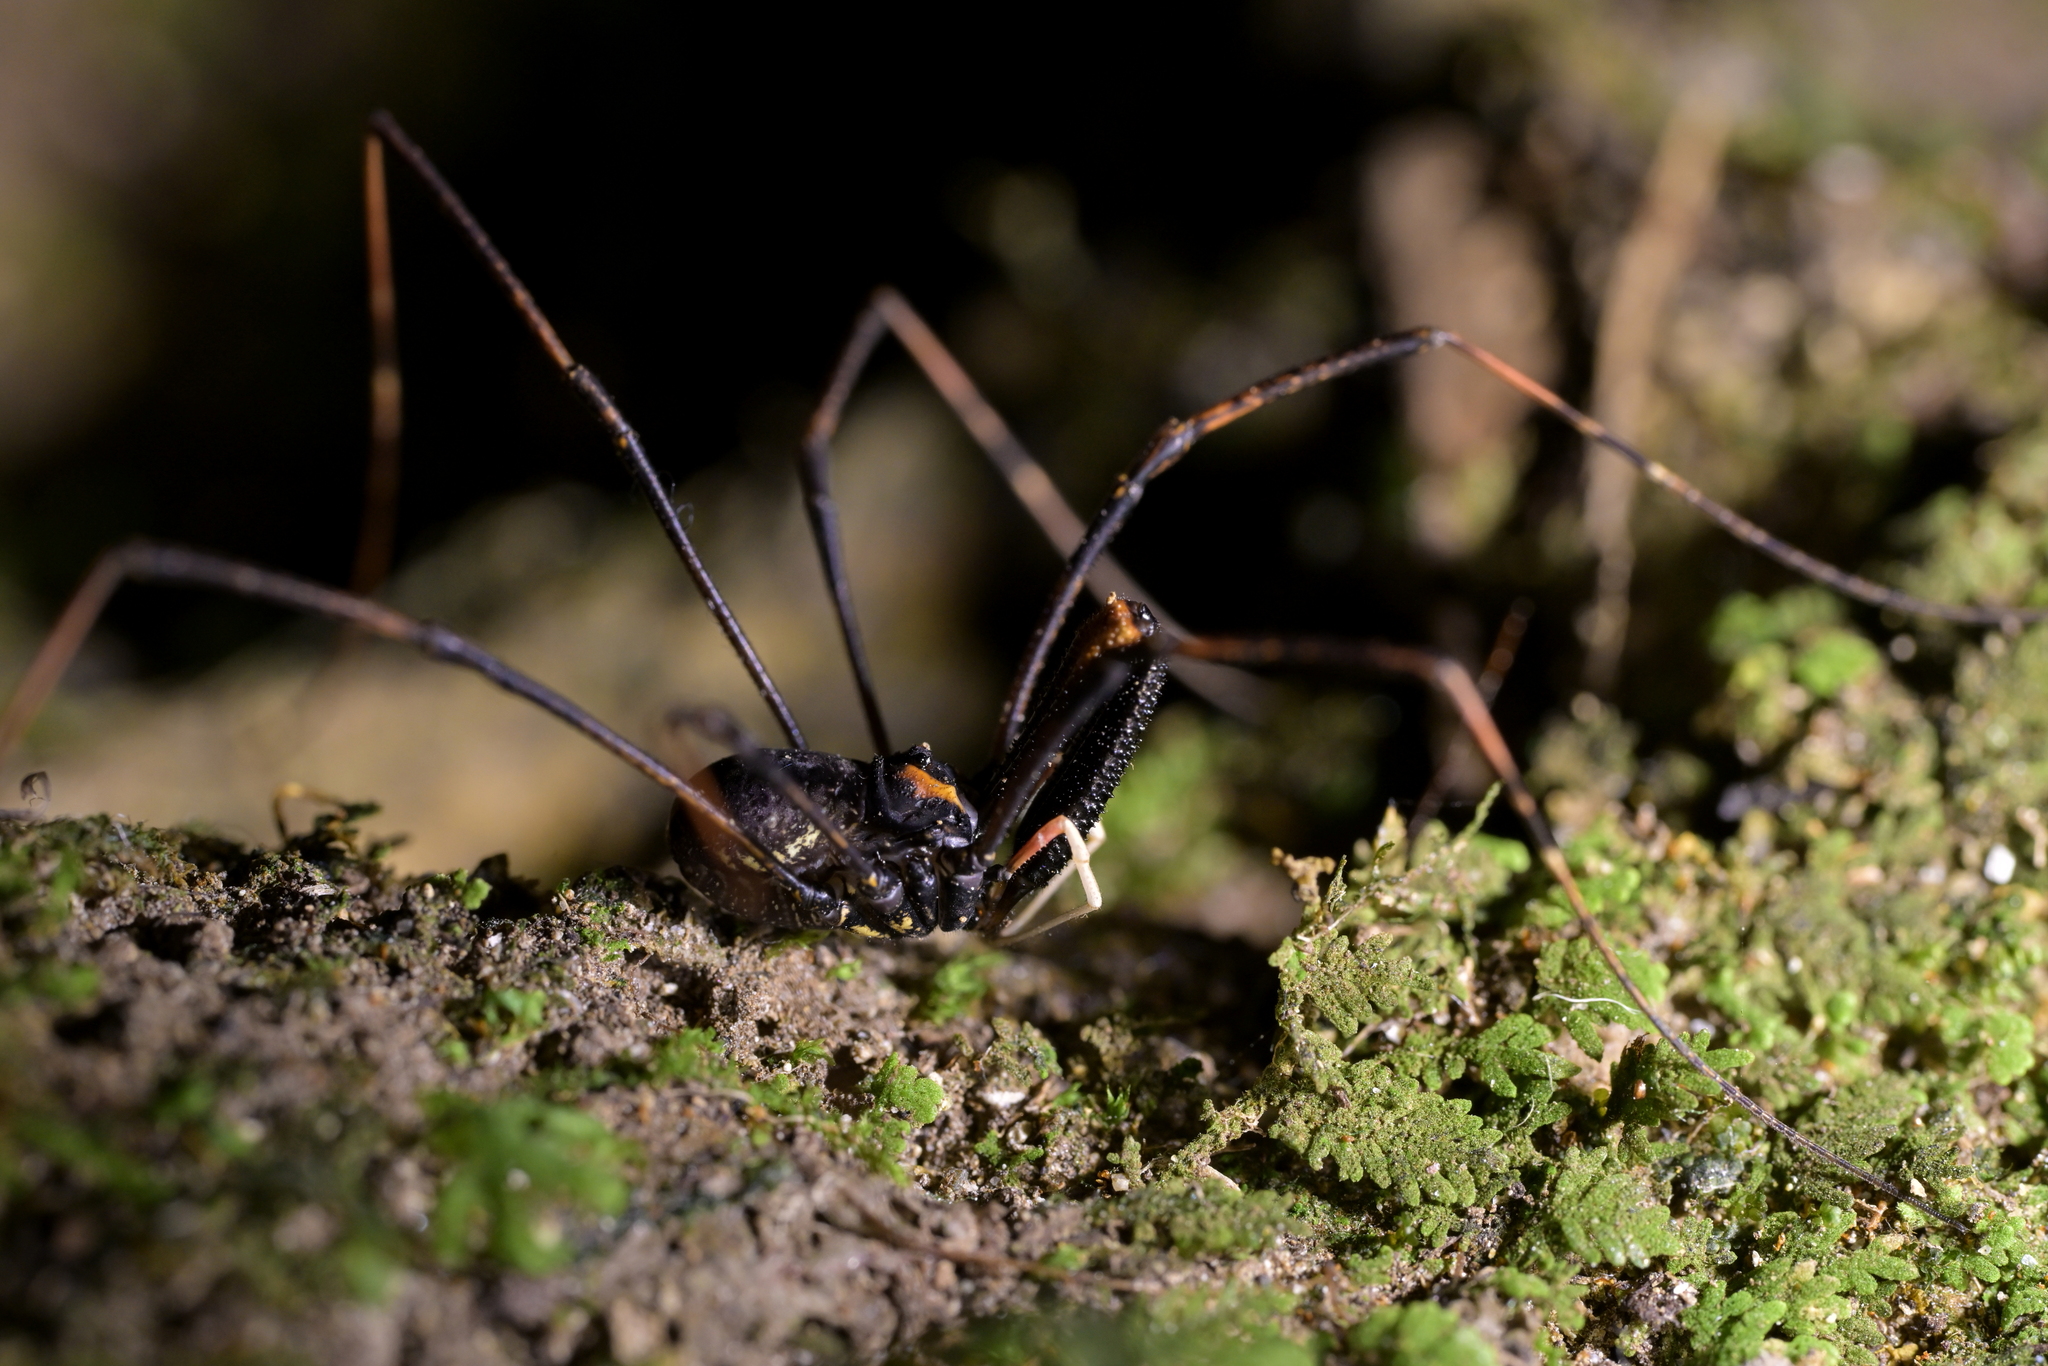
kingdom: Animalia
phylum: Arthropoda
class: Arachnida
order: Opiliones
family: Neopilionidae
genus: Forsteropsalis
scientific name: Forsteropsalis inconstans
